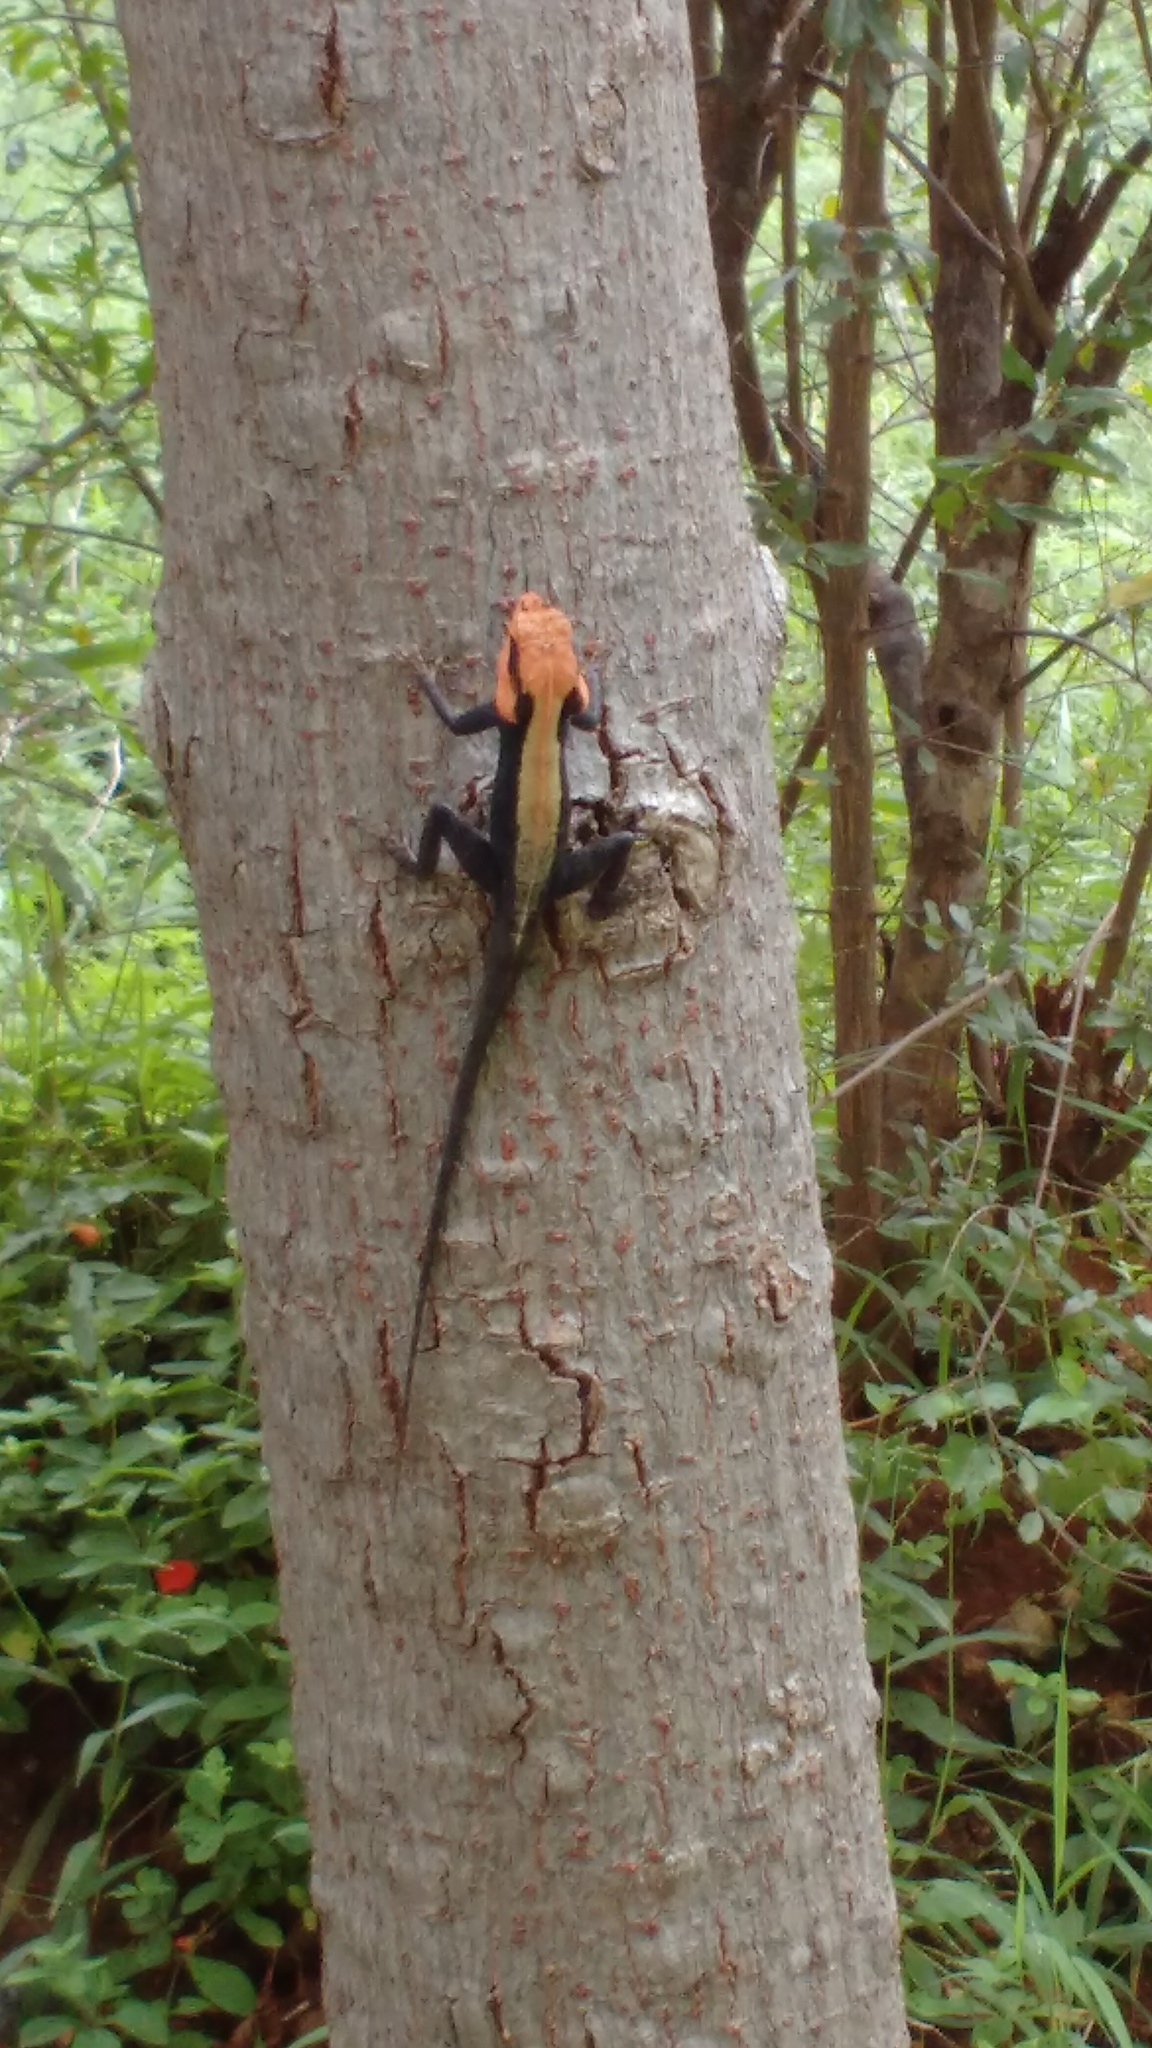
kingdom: Animalia
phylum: Chordata
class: Squamata
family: Agamidae
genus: Psammophilus
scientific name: Psammophilus dorsalis
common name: South indian rock agama
